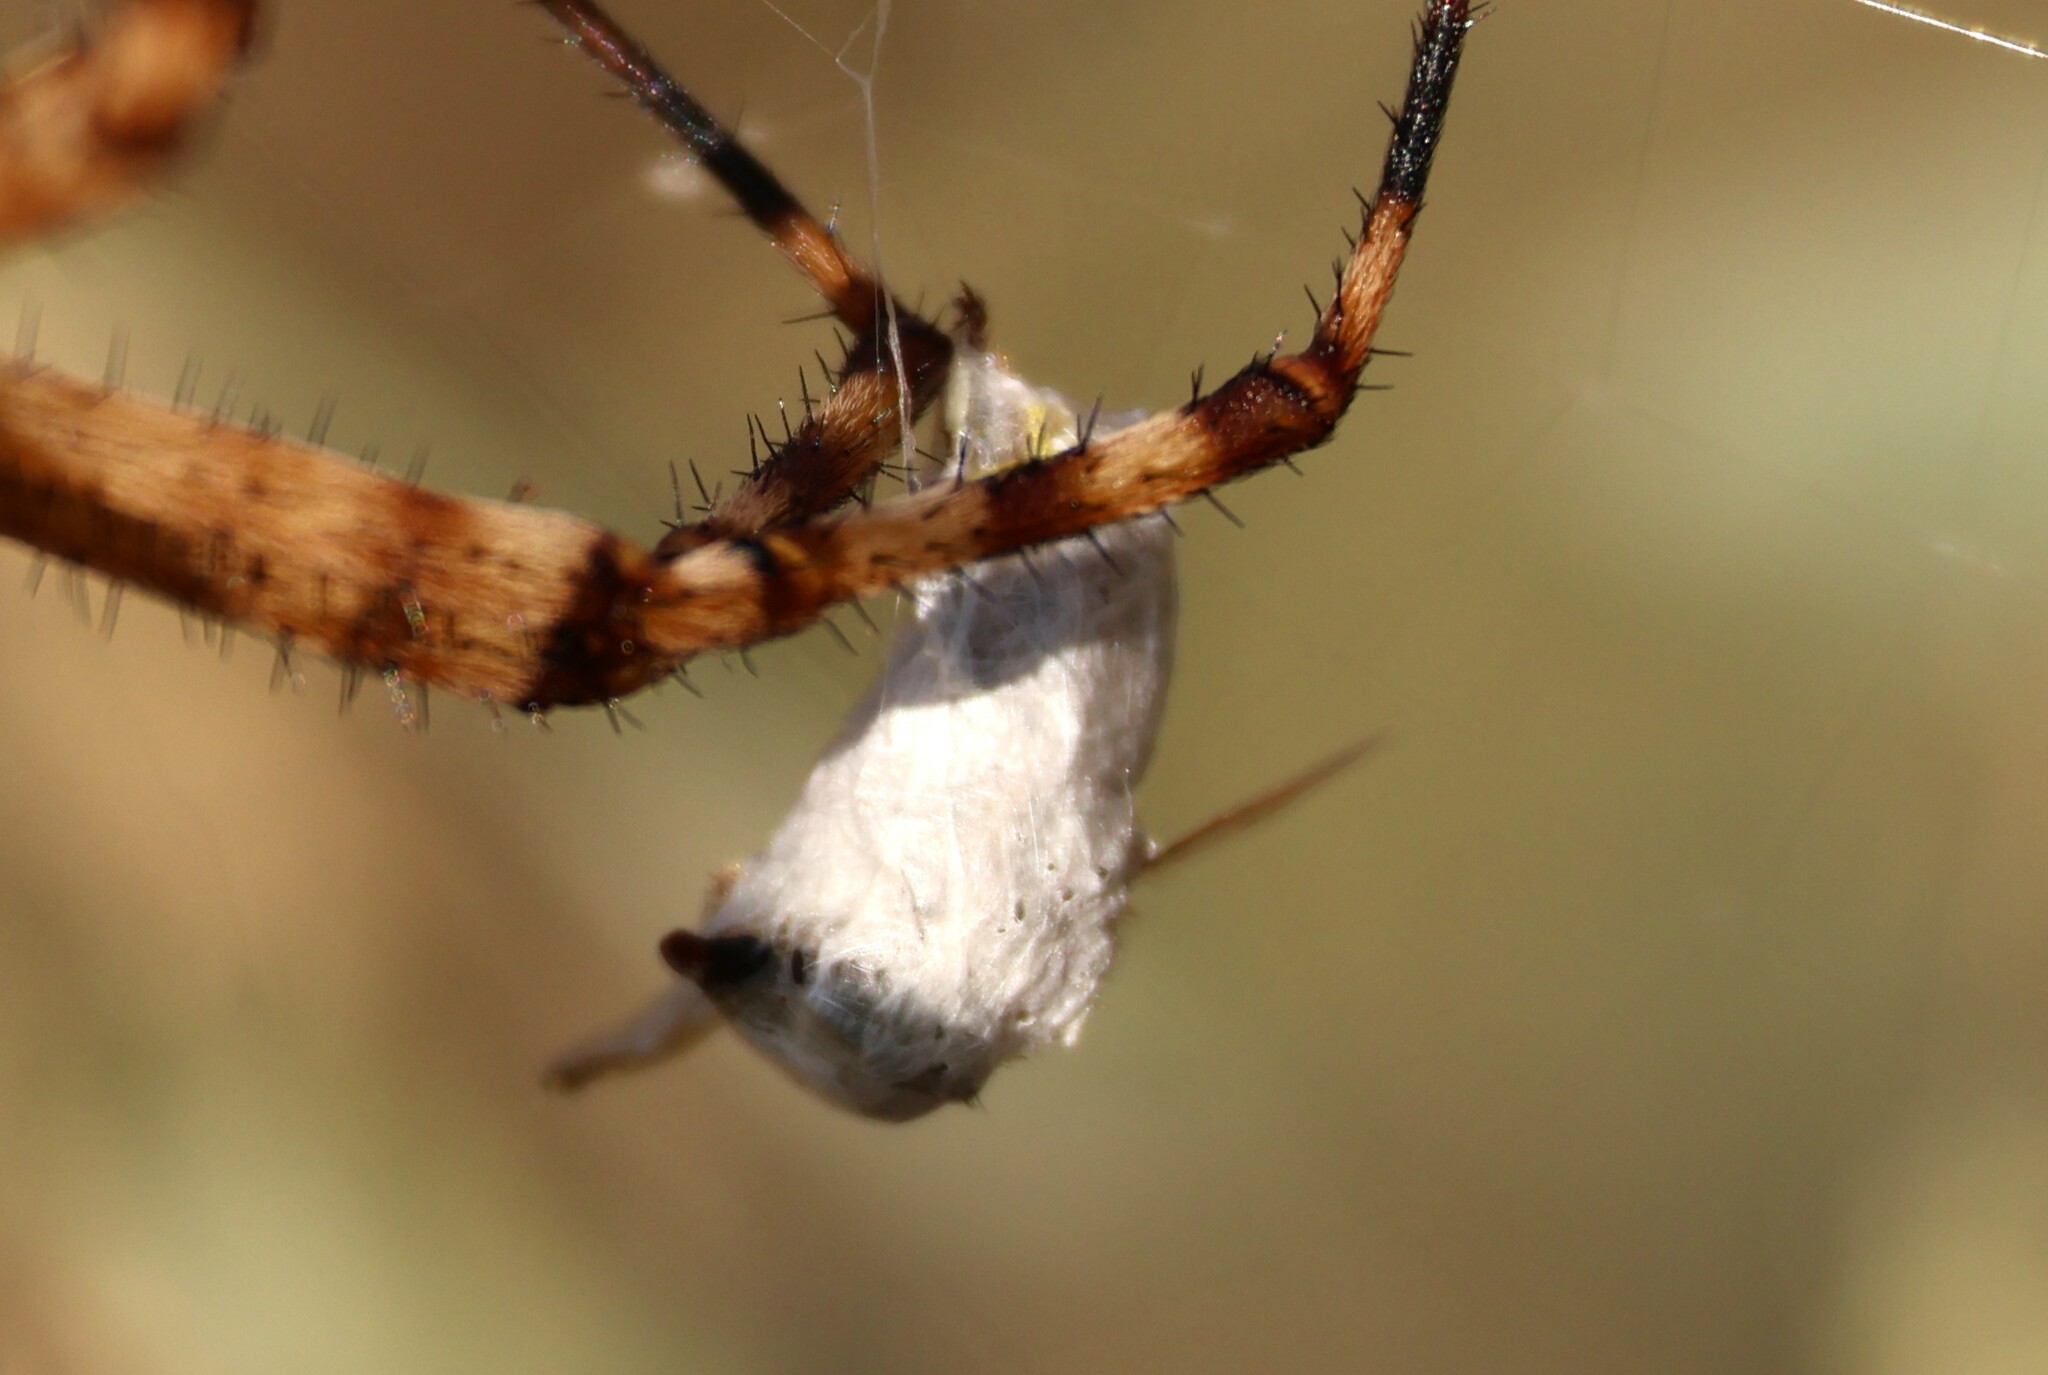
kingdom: Animalia
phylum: Arthropoda
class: Arachnida
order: Araneae
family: Araneidae
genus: Argiope
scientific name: Argiope trifasciata
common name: Banded garden spider
